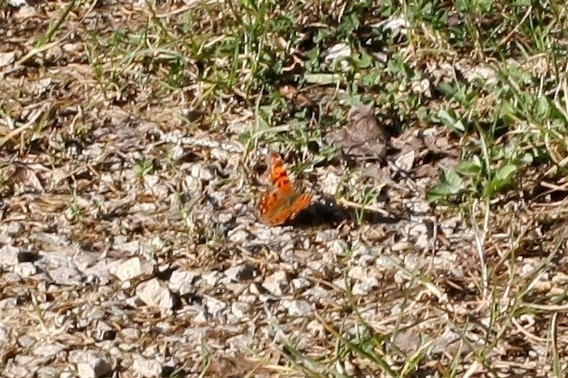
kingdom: Animalia
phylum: Arthropoda
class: Insecta
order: Lepidoptera
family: Nymphalidae
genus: Polygonia
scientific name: Polygonia c-album
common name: Comma
